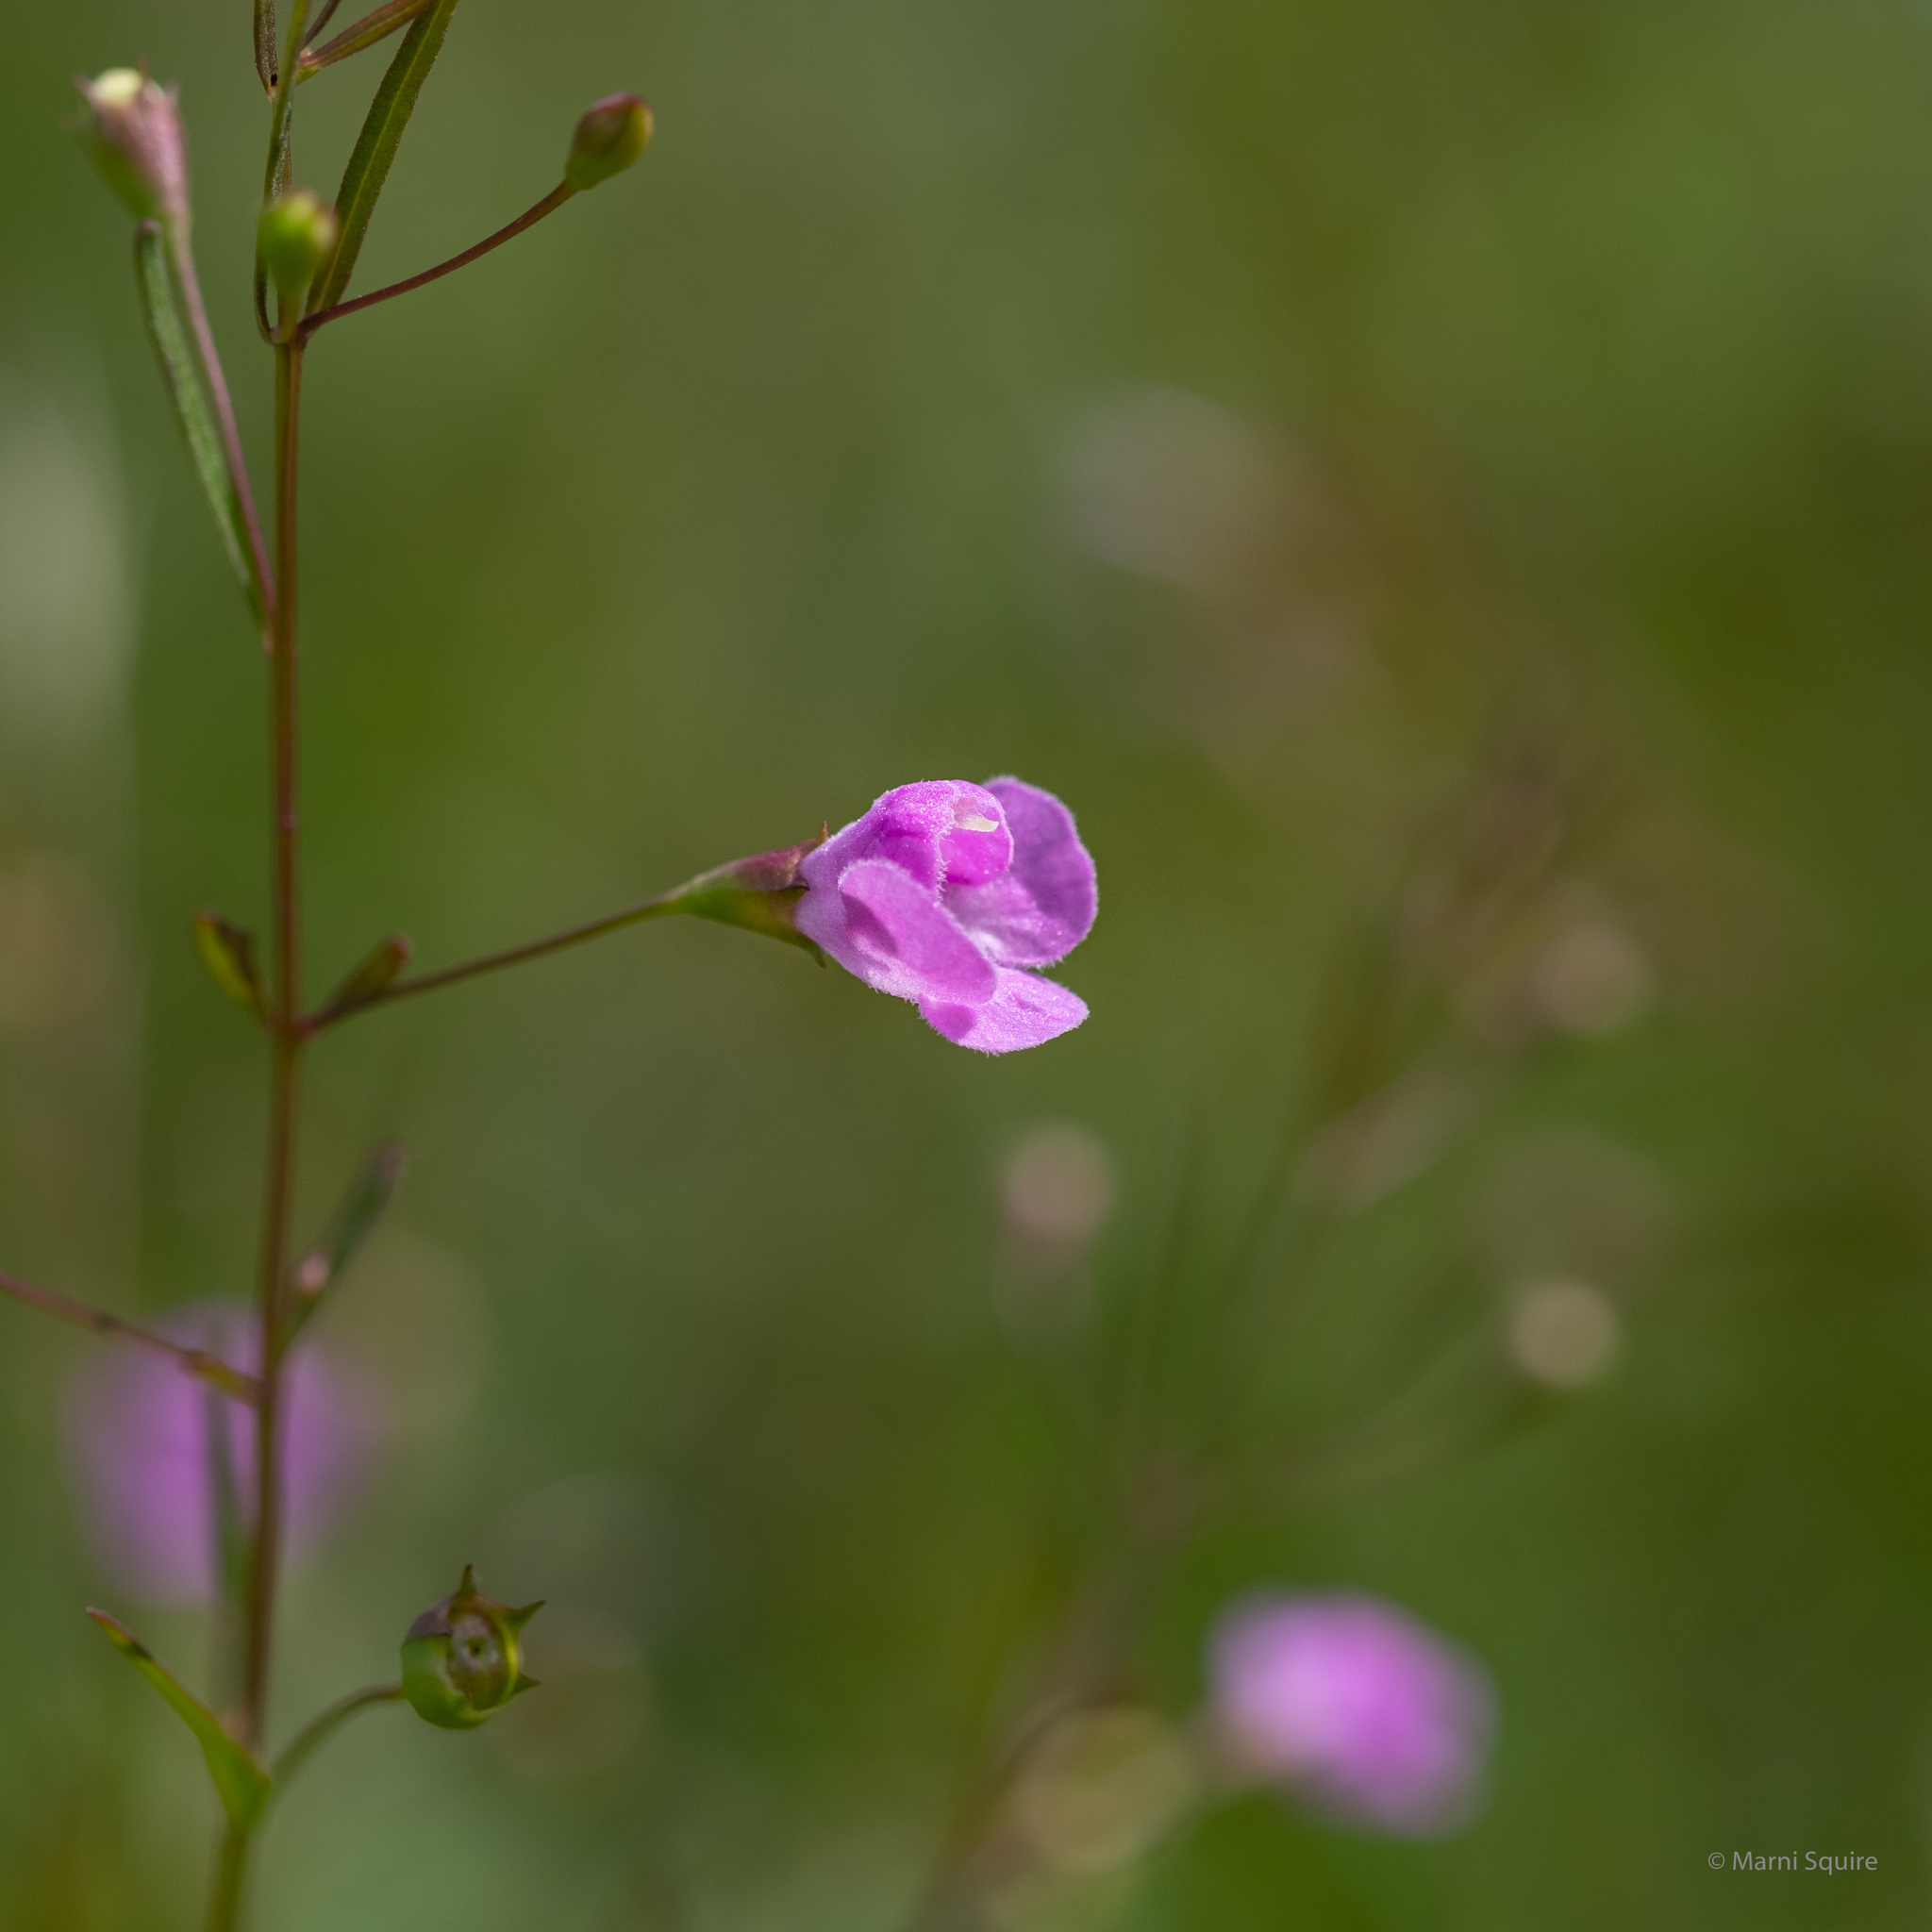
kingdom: Plantae
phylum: Tracheophyta
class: Magnoliopsida
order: Lamiales
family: Orobanchaceae
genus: Agalinis
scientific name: Agalinis tenuifolia
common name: Slender agalinis
